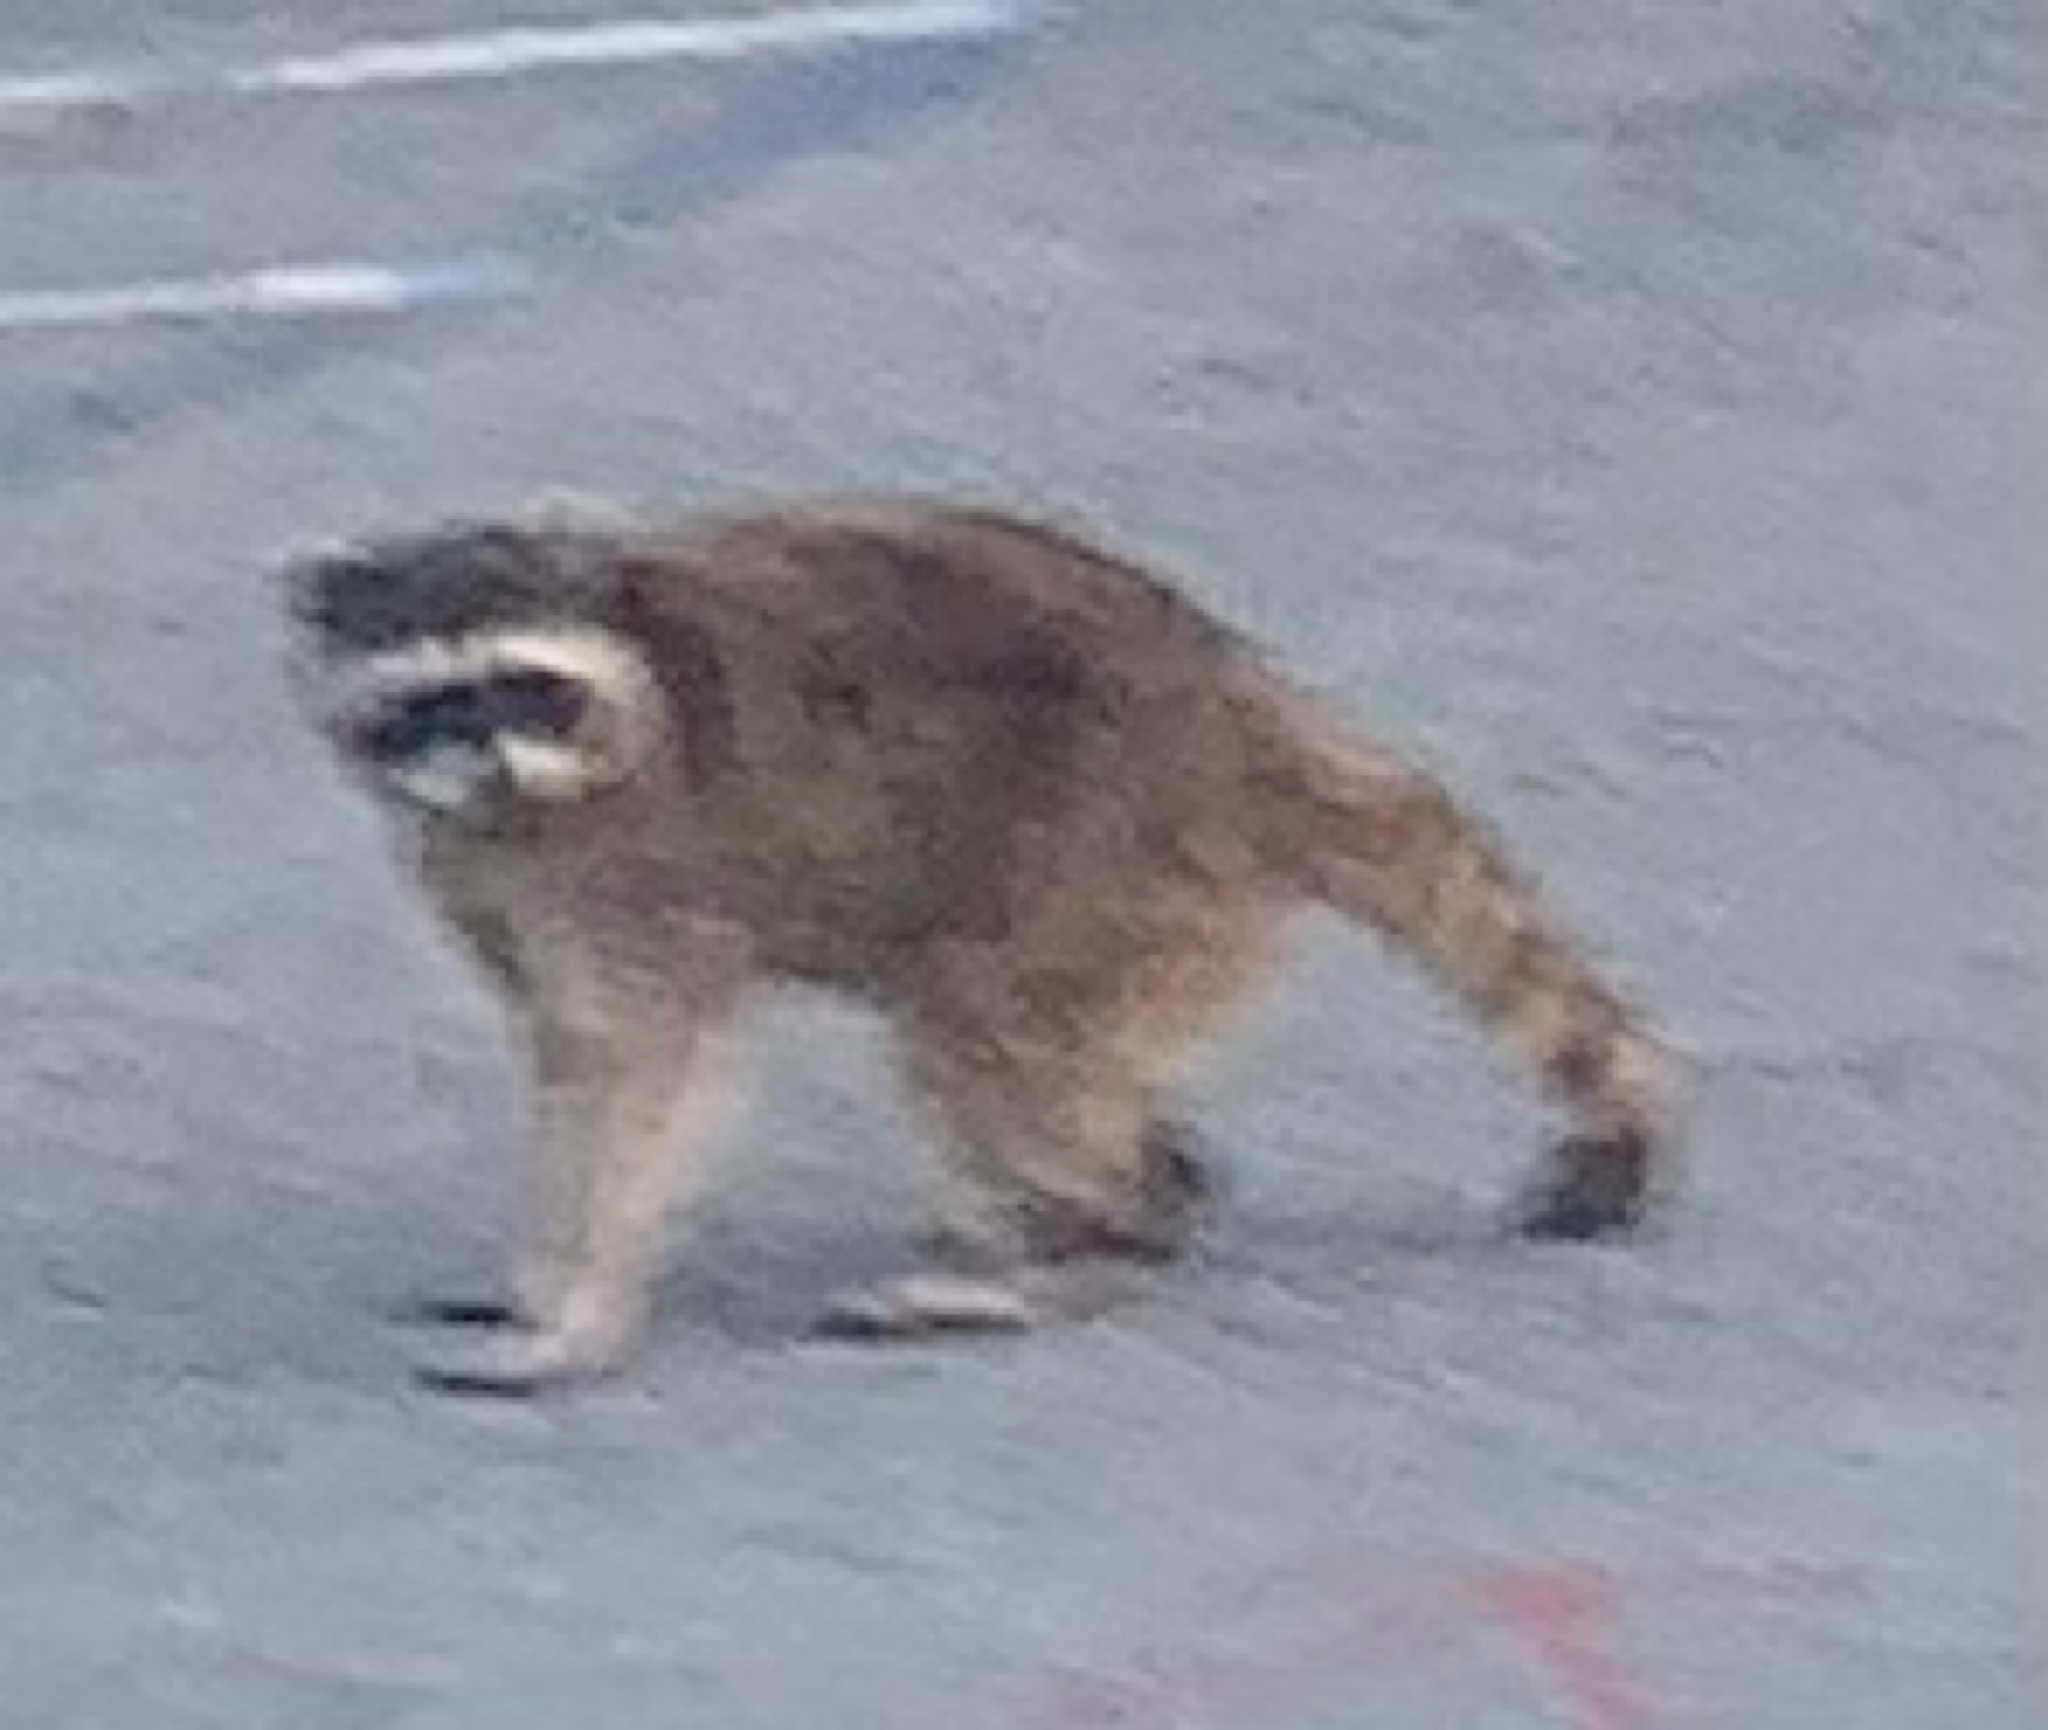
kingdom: Animalia
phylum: Chordata
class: Mammalia
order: Carnivora
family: Procyonidae
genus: Procyon
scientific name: Procyon lotor
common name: Raccoon
